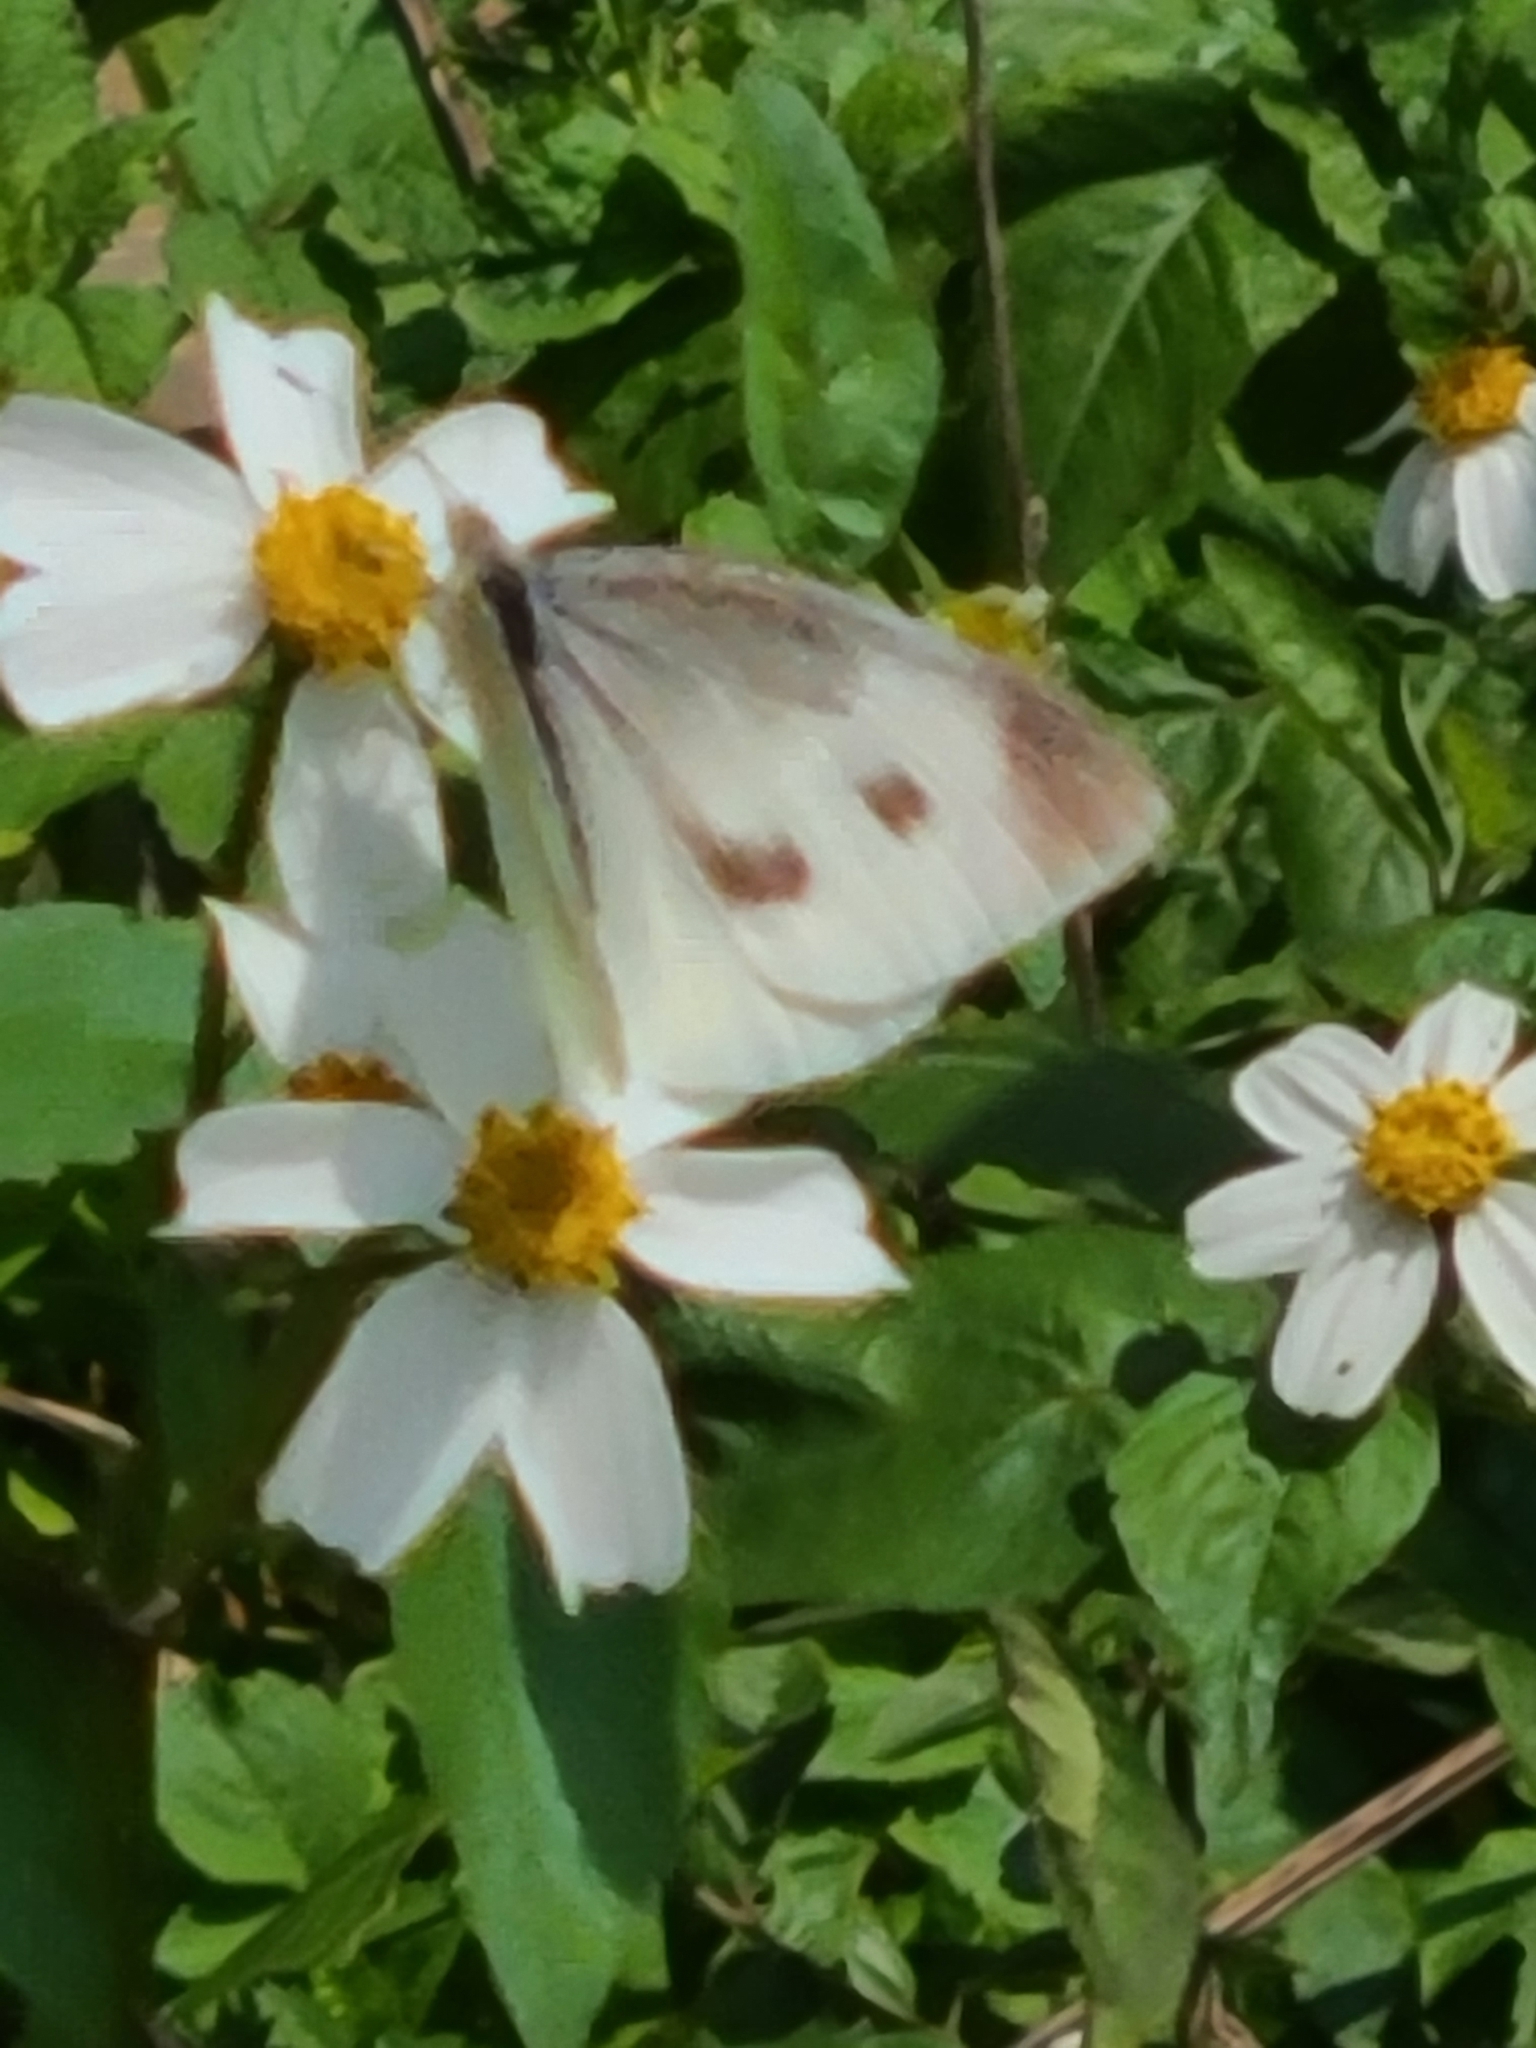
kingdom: Animalia
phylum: Arthropoda
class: Insecta
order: Lepidoptera
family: Pieridae
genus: Pieris
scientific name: Pieris rapae
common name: Small white
